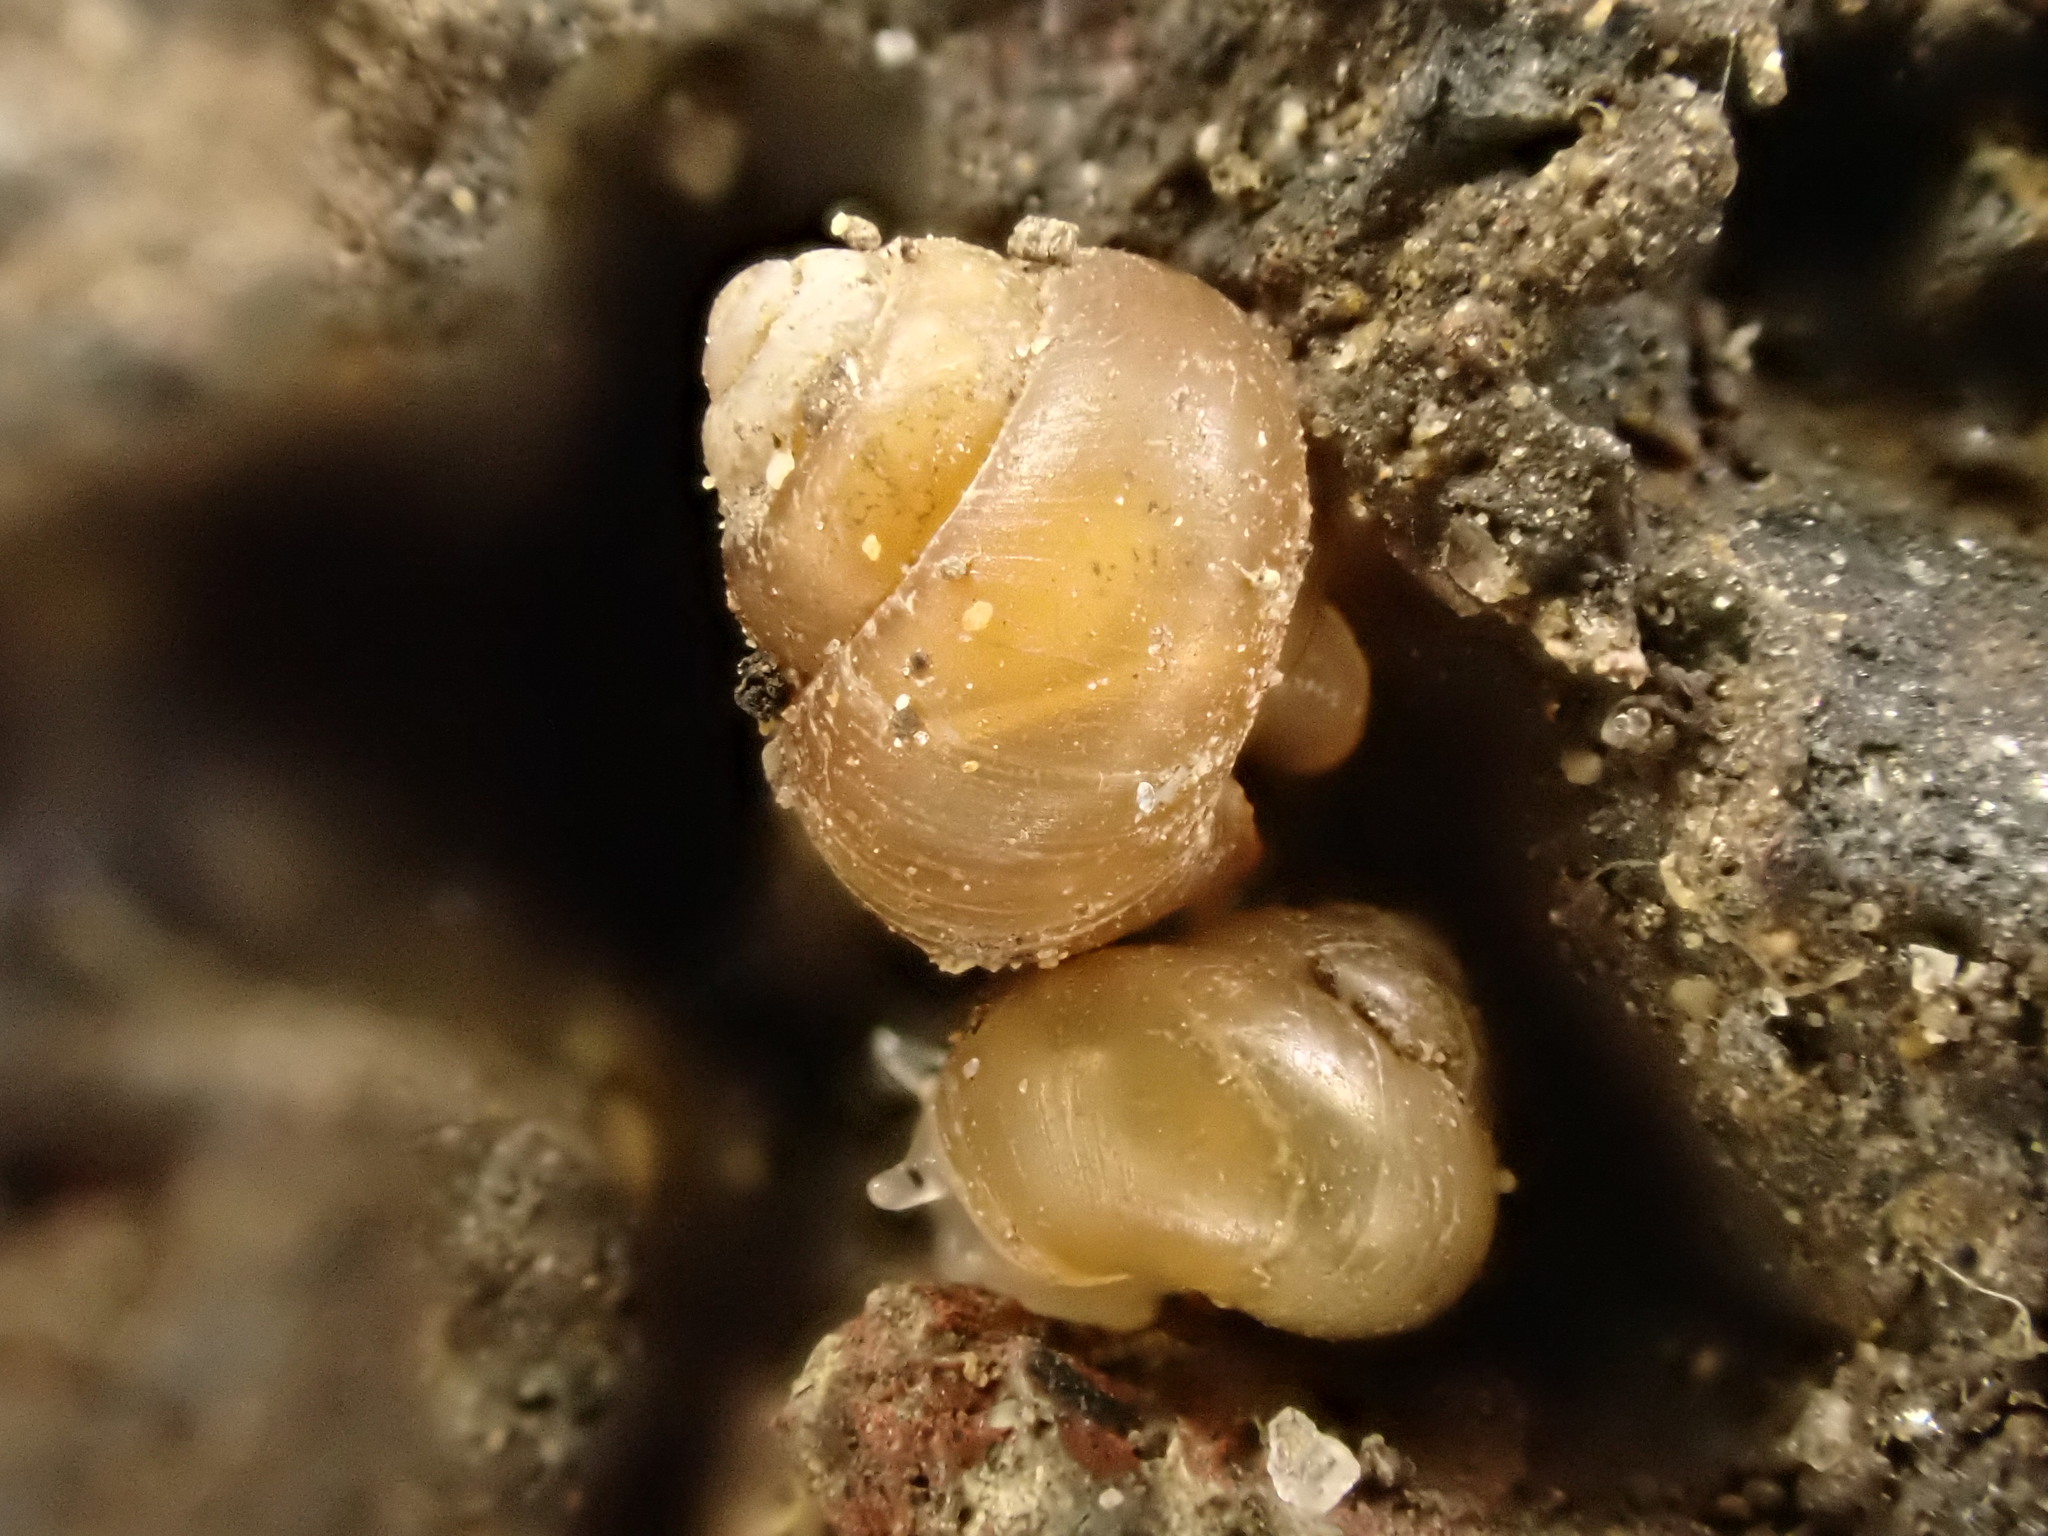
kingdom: Animalia
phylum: Mollusca
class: Gastropoda
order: Littorinimorpha
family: Assimineidae
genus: Suterilla
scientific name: Suterilla neozelanica
